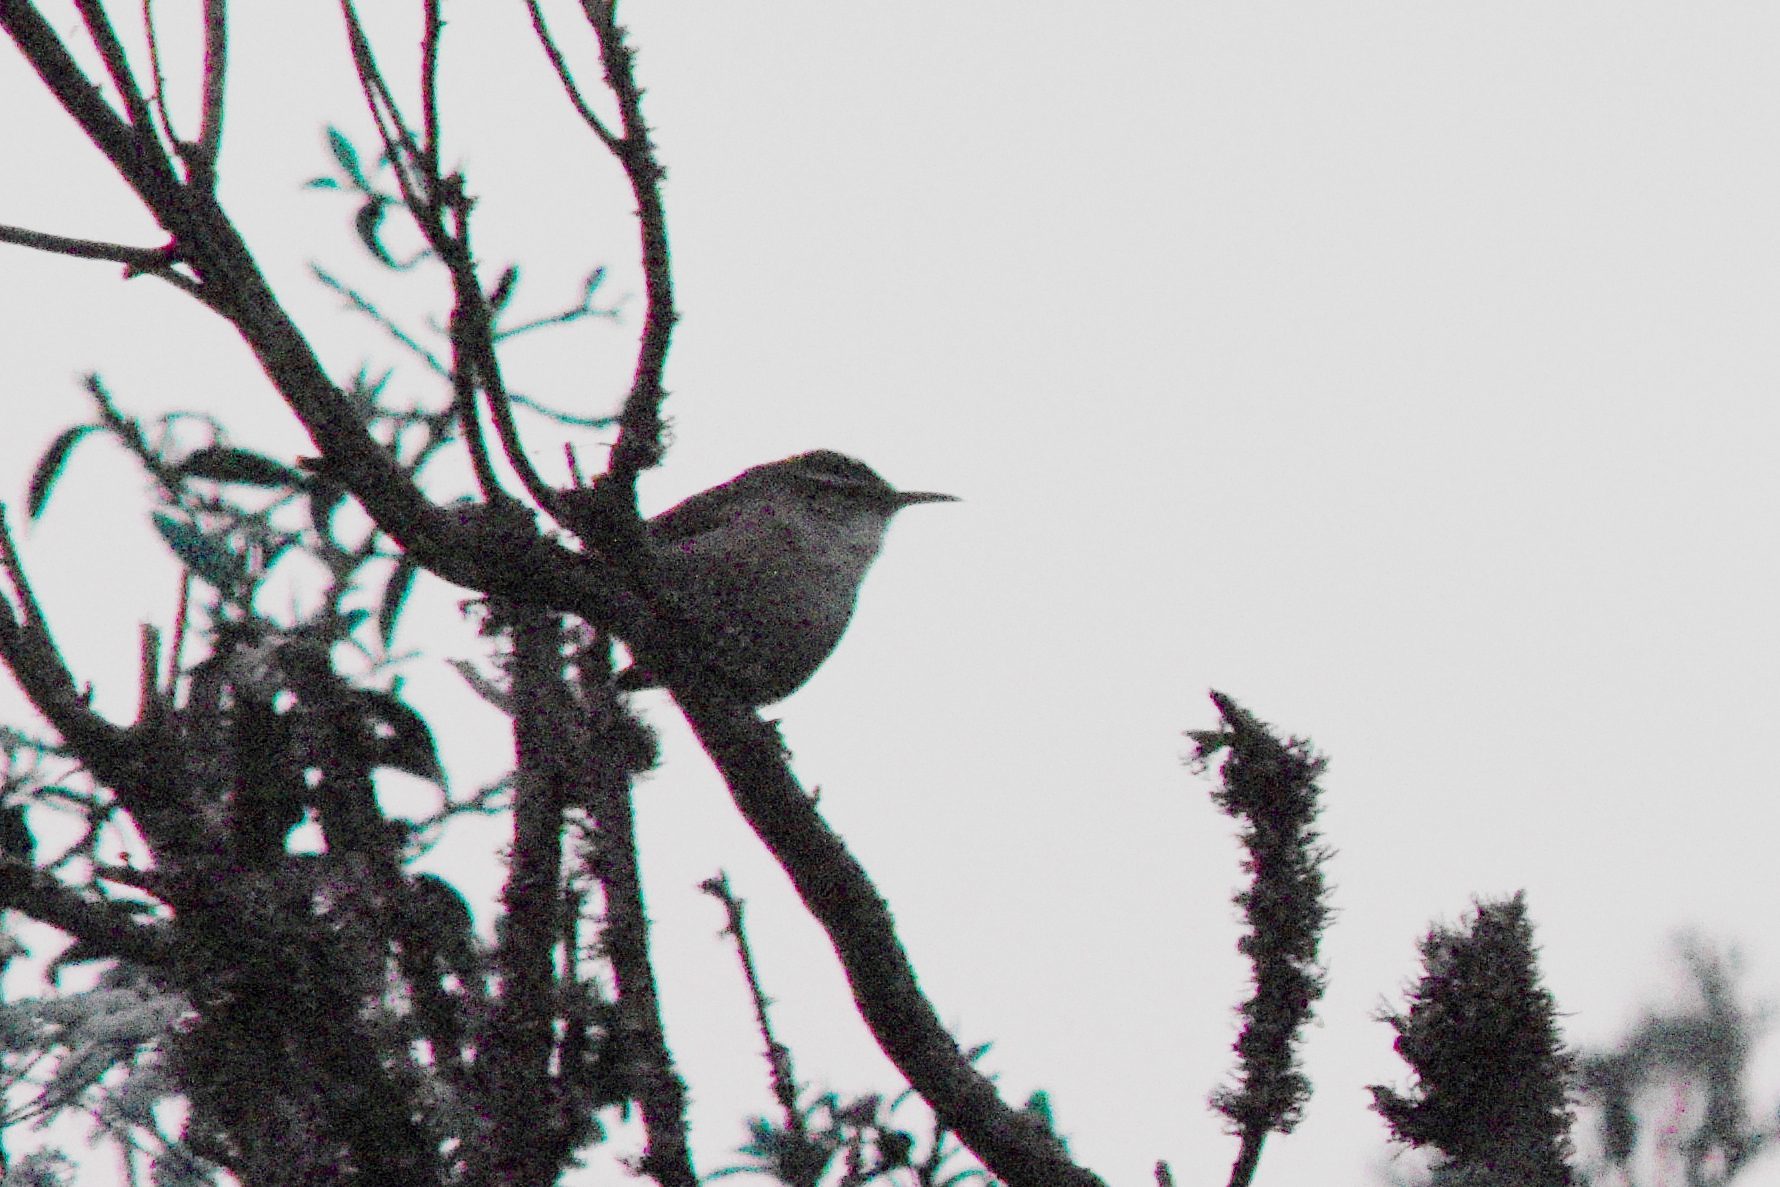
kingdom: Animalia
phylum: Chordata
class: Aves
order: Passeriformes
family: Troglodytidae
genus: Thryomanes
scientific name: Thryomanes bewickii
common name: Bewick's wren
